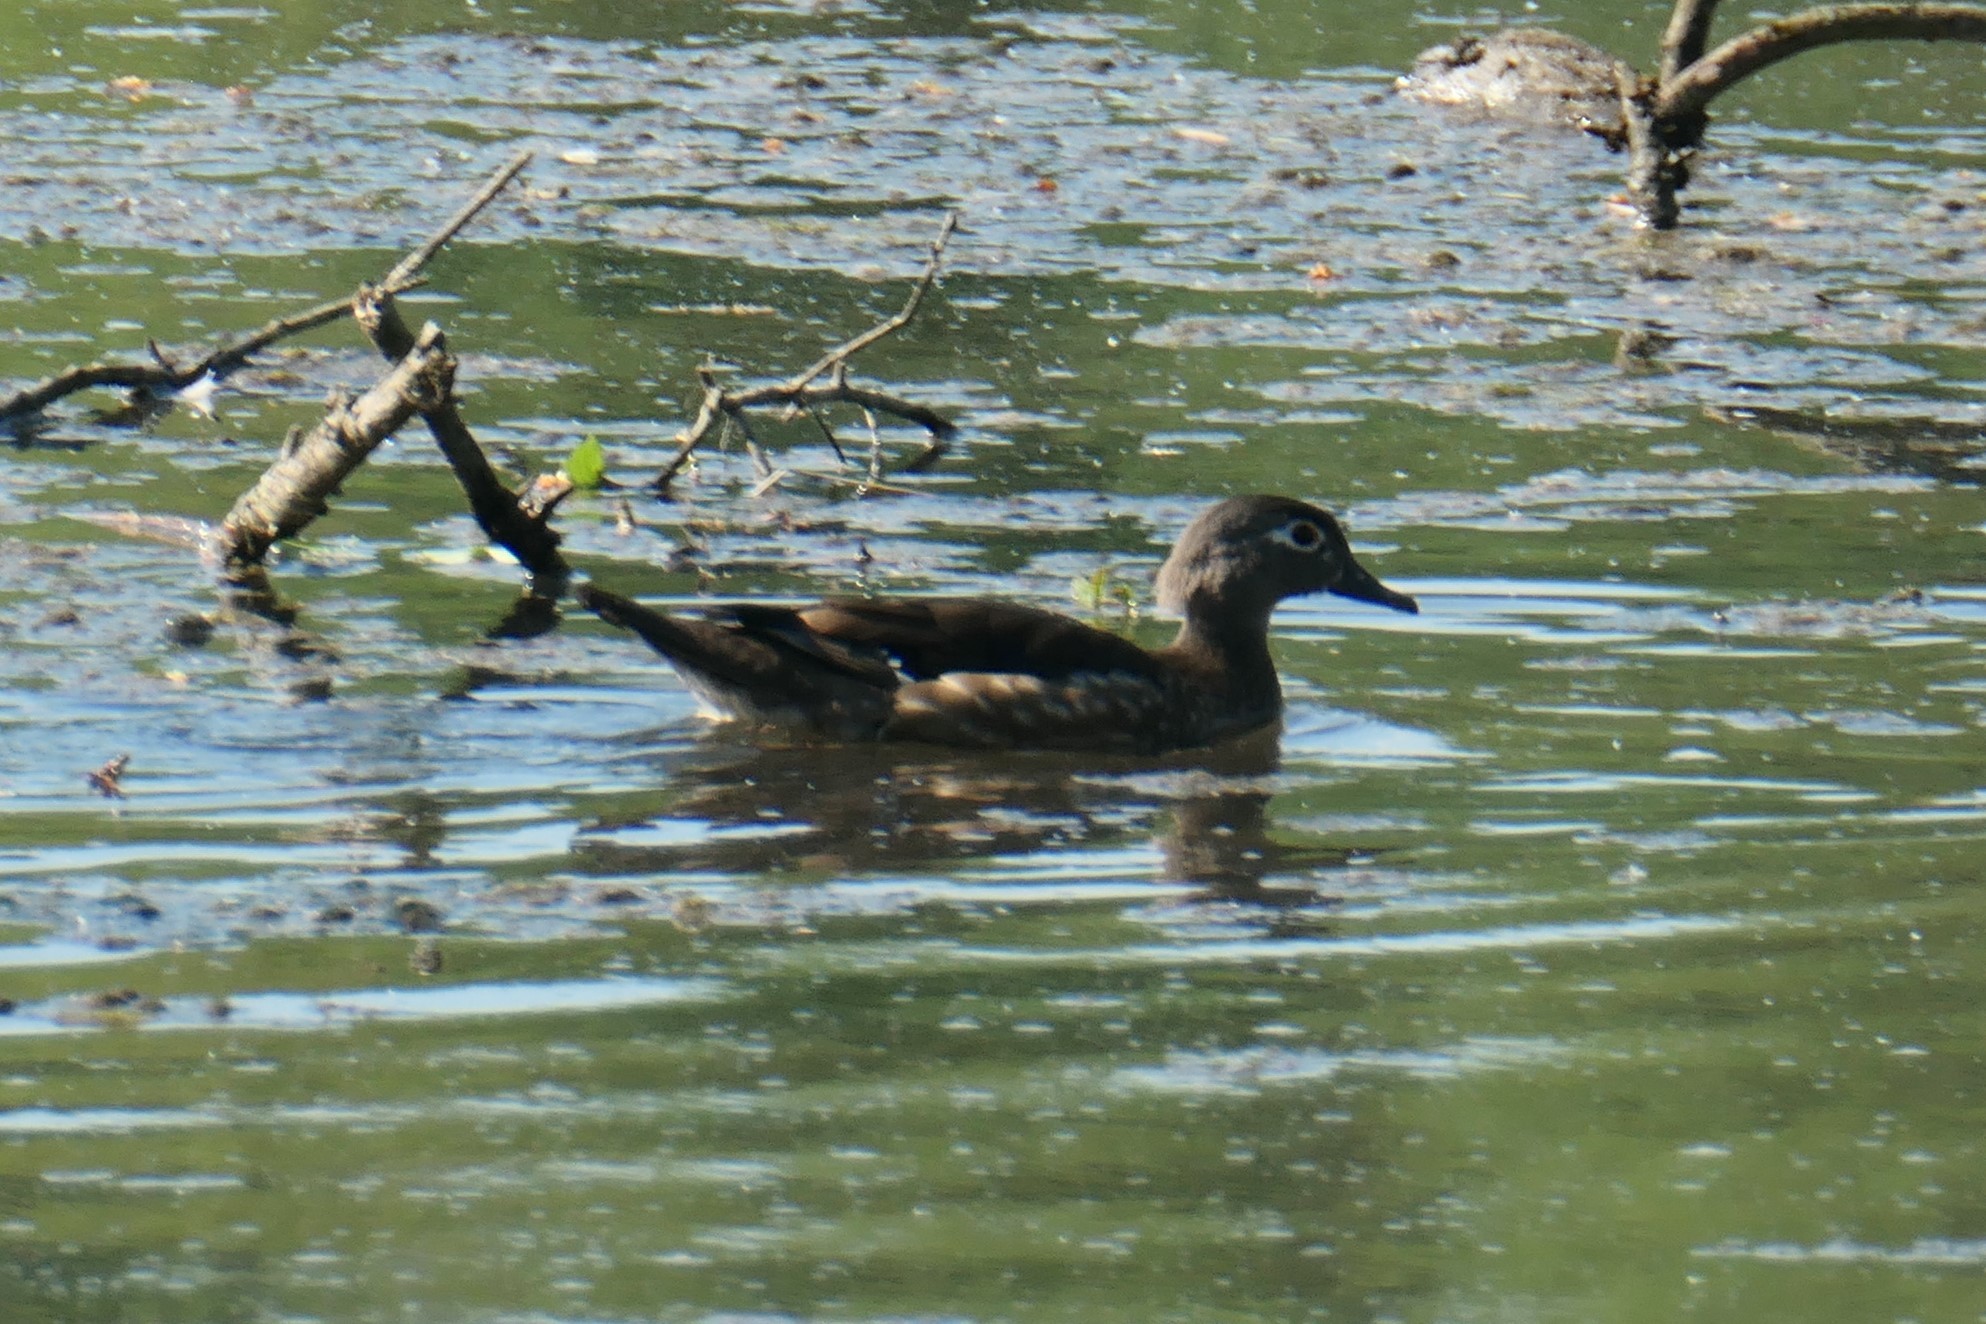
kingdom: Animalia
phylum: Chordata
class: Aves
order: Anseriformes
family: Anatidae
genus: Aix
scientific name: Aix sponsa
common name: Wood duck
